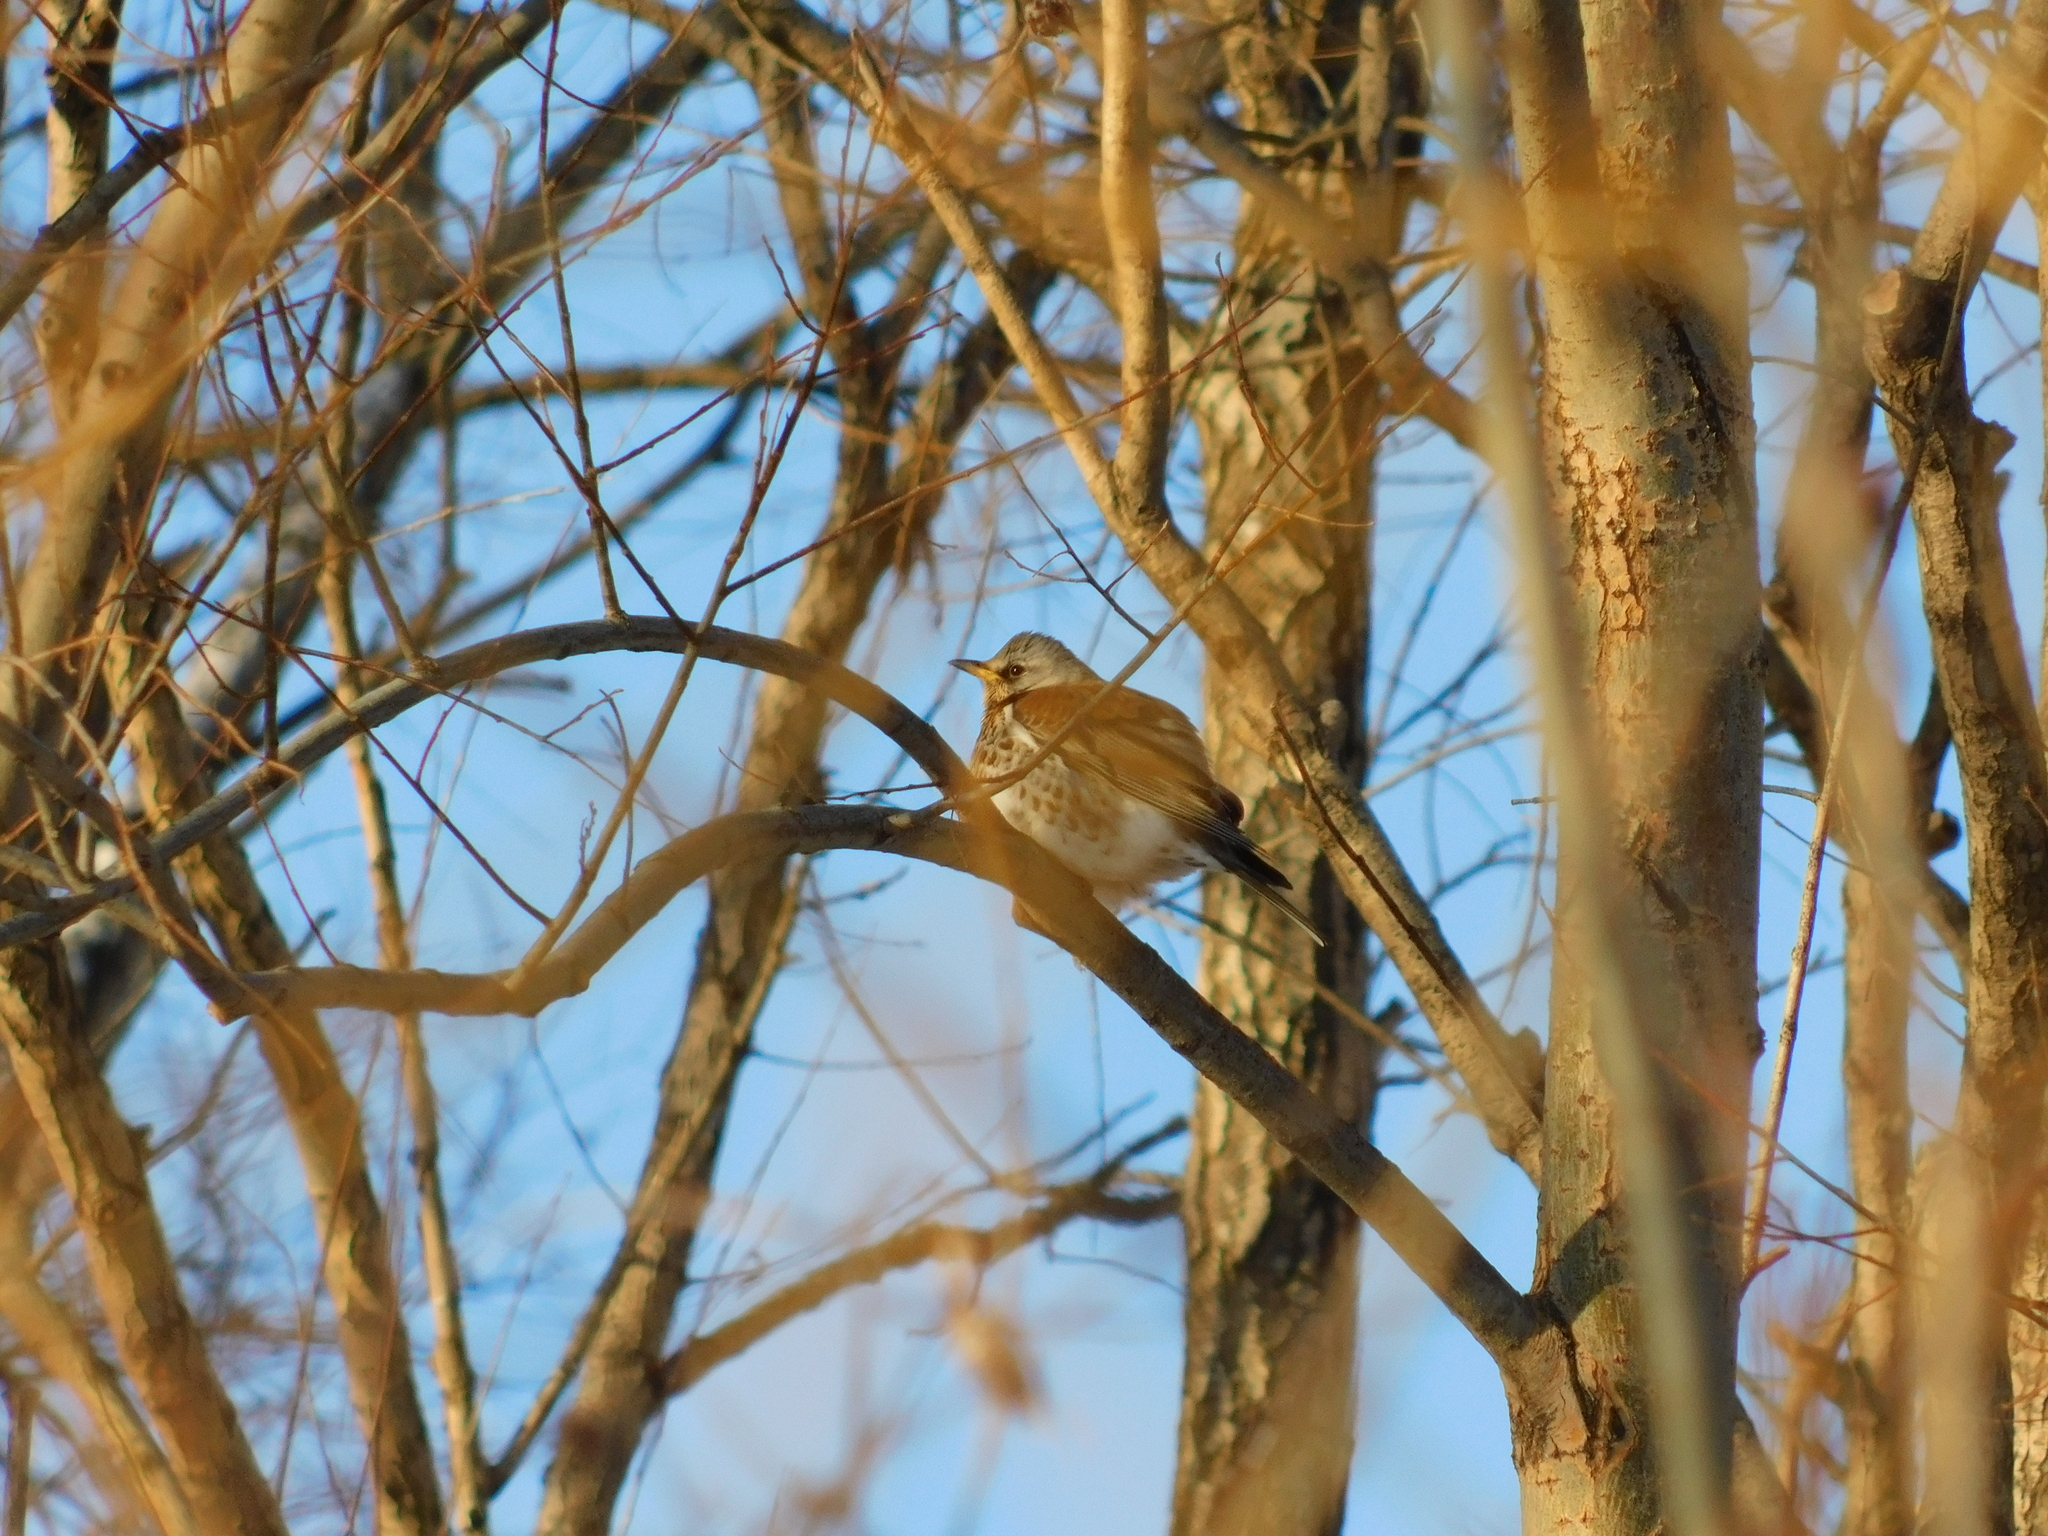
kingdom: Animalia
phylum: Chordata
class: Aves
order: Passeriformes
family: Turdidae
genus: Turdus
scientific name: Turdus pilaris
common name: Fieldfare
